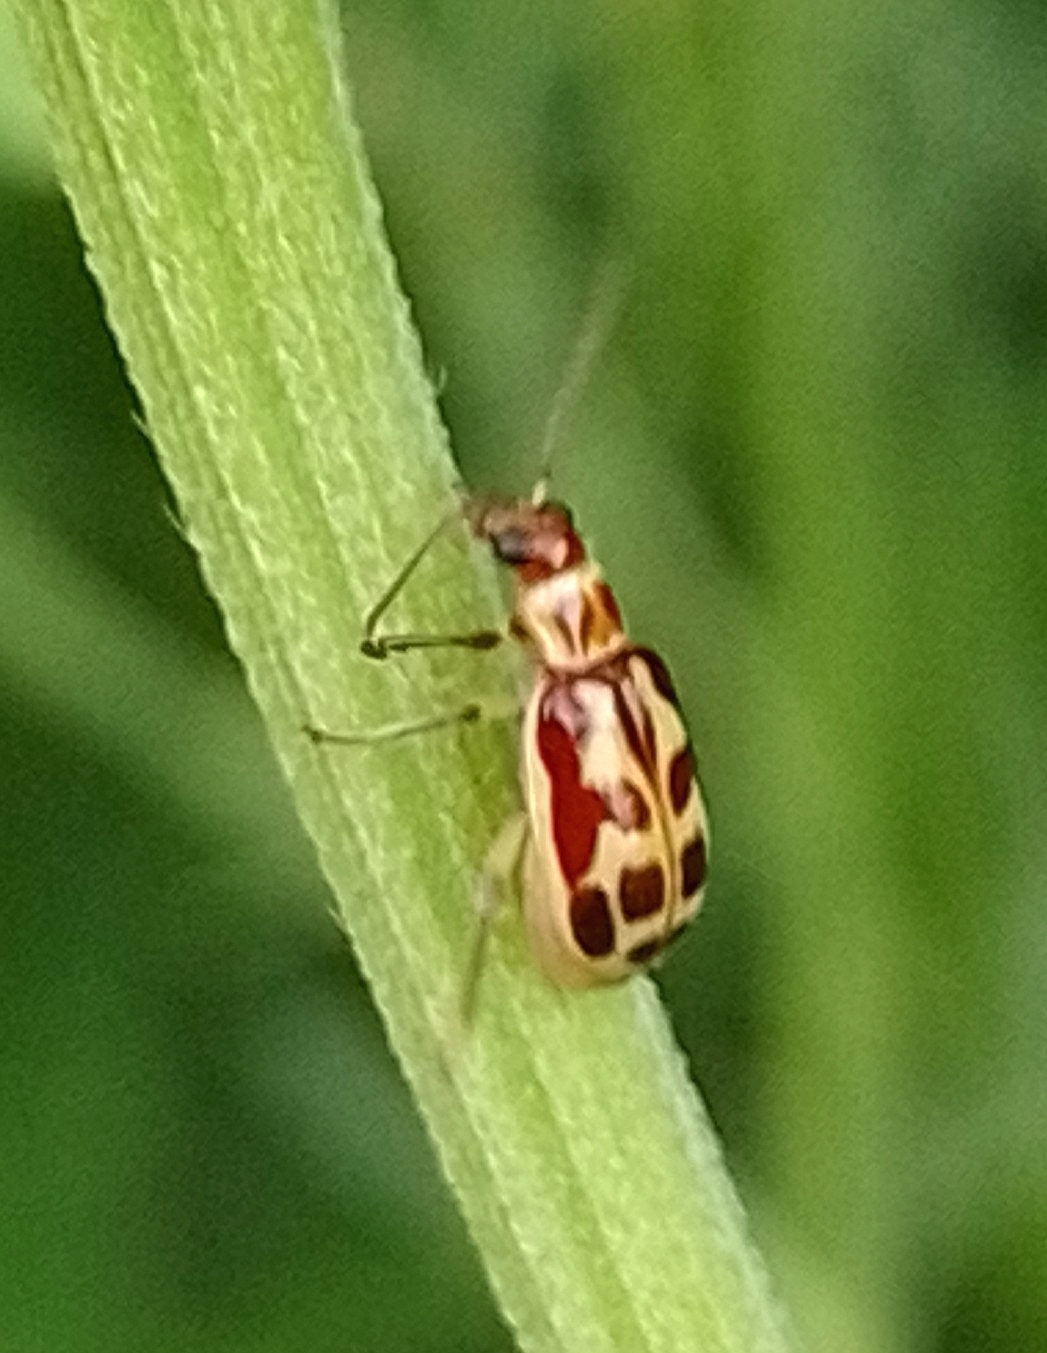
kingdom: Animalia
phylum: Arthropoda
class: Insecta
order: Coleoptera
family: Chrysomelidae
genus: Paranapiacaba
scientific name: Paranapiacaba significata
